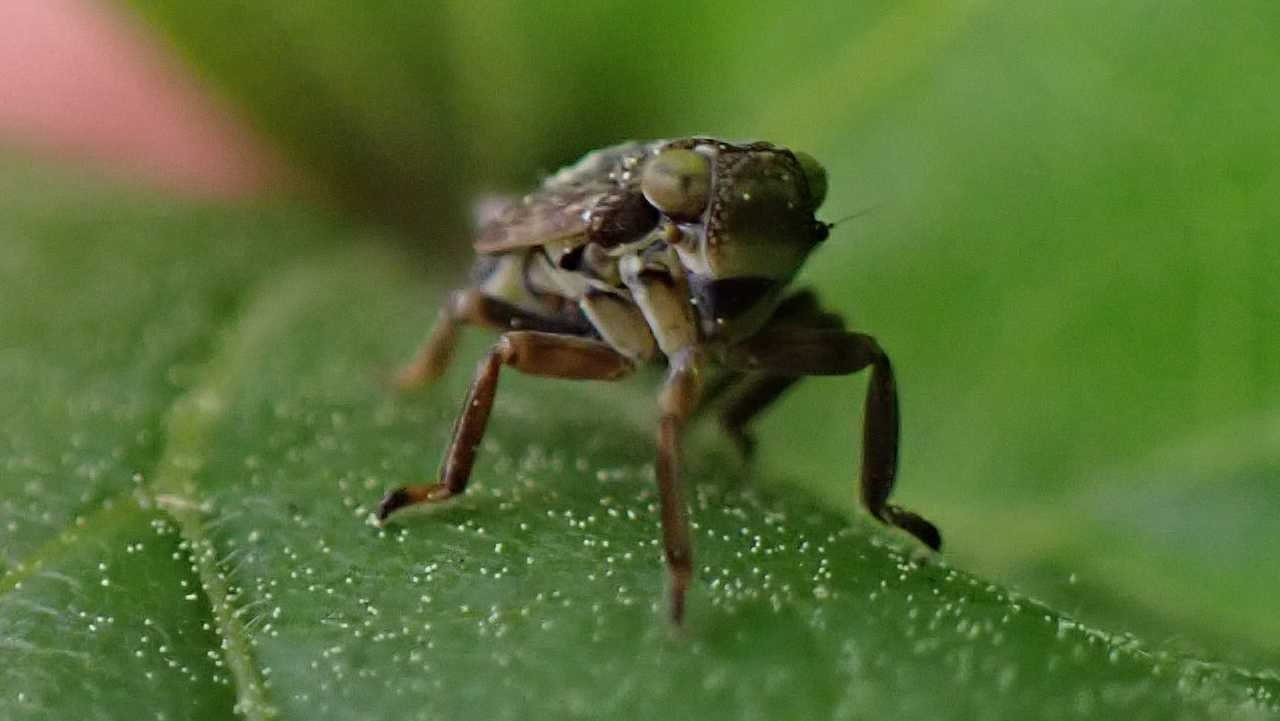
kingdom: Animalia
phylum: Arthropoda
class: Insecta
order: Hemiptera
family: Issidae
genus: Issus
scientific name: Issus coleoptratus
